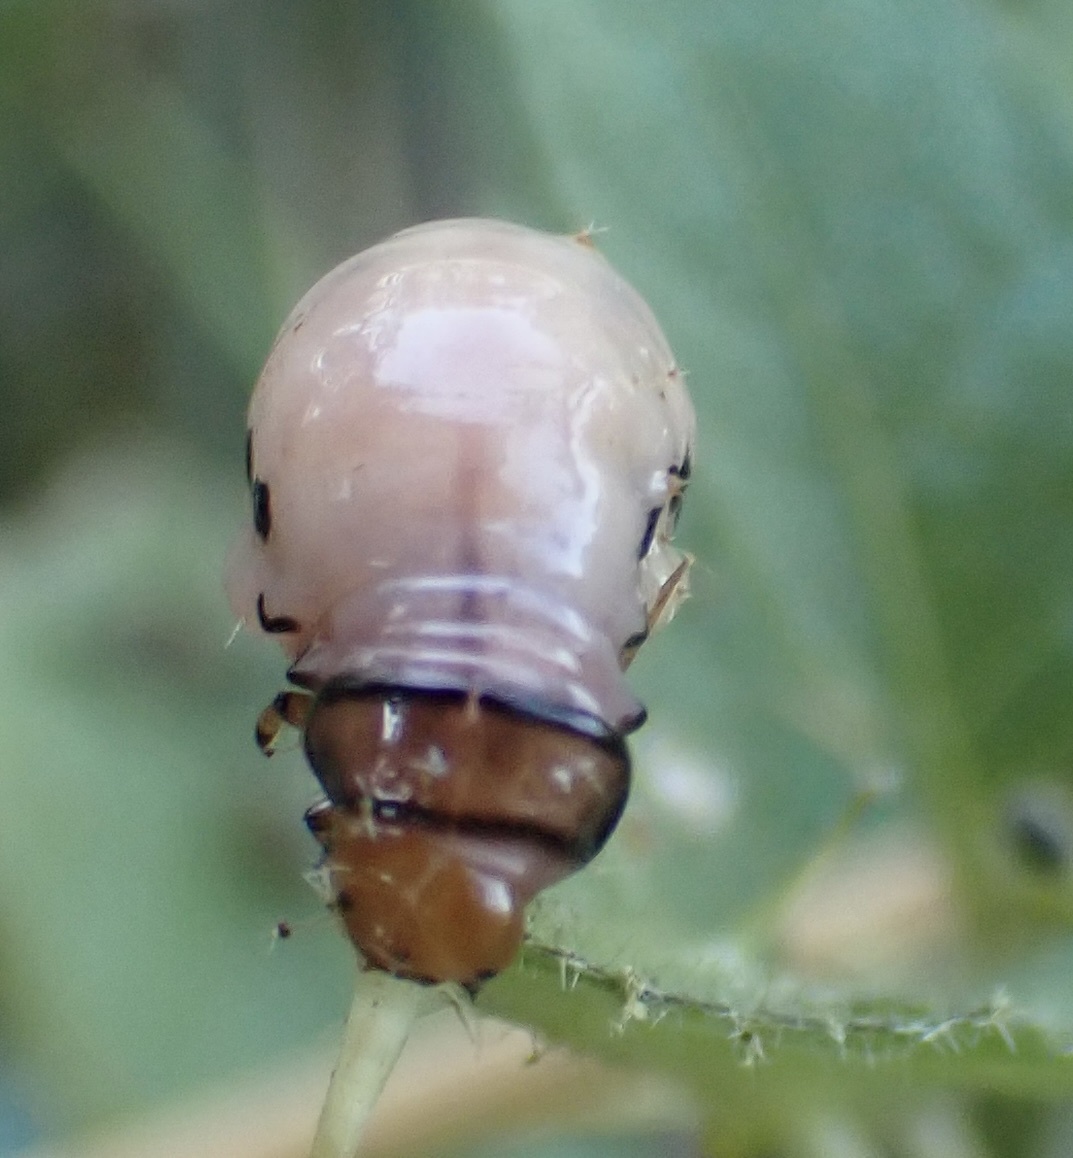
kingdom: Animalia
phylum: Arthropoda
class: Insecta
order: Coleoptera
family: Chrysomelidae
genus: Leptinotarsa
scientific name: Leptinotarsa juncta
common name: False potato beetle
